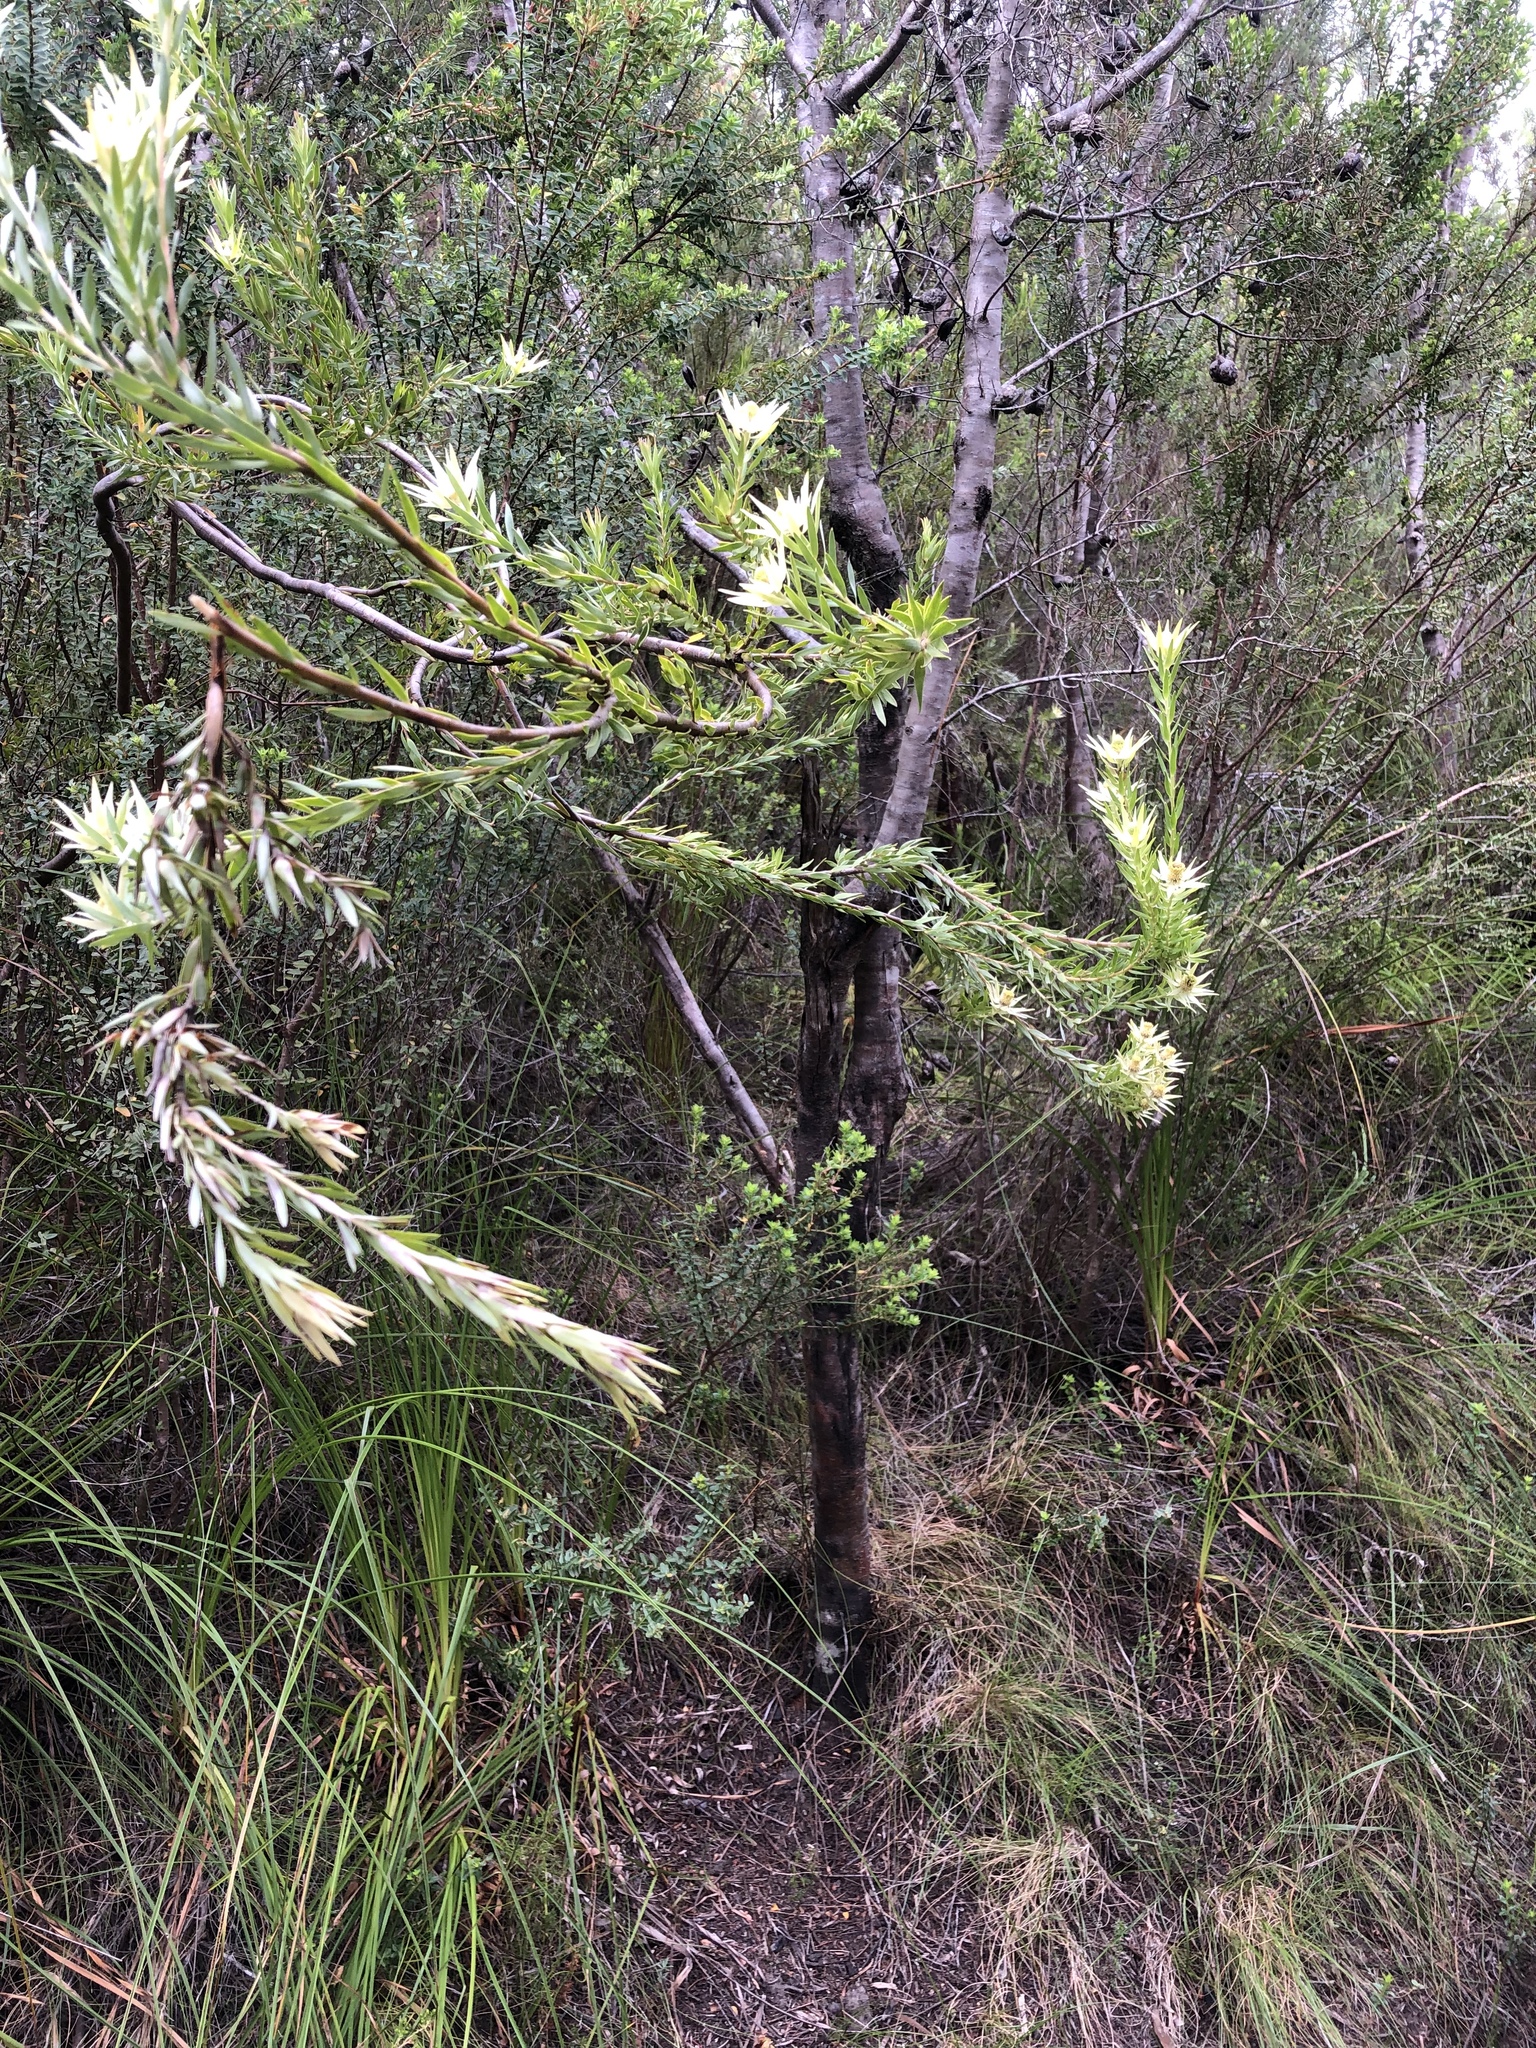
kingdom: Plantae
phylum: Tracheophyta
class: Magnoliopsida
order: Proteales
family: Proteaceae
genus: Leucadendron
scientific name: Leucadendron uliginosum
